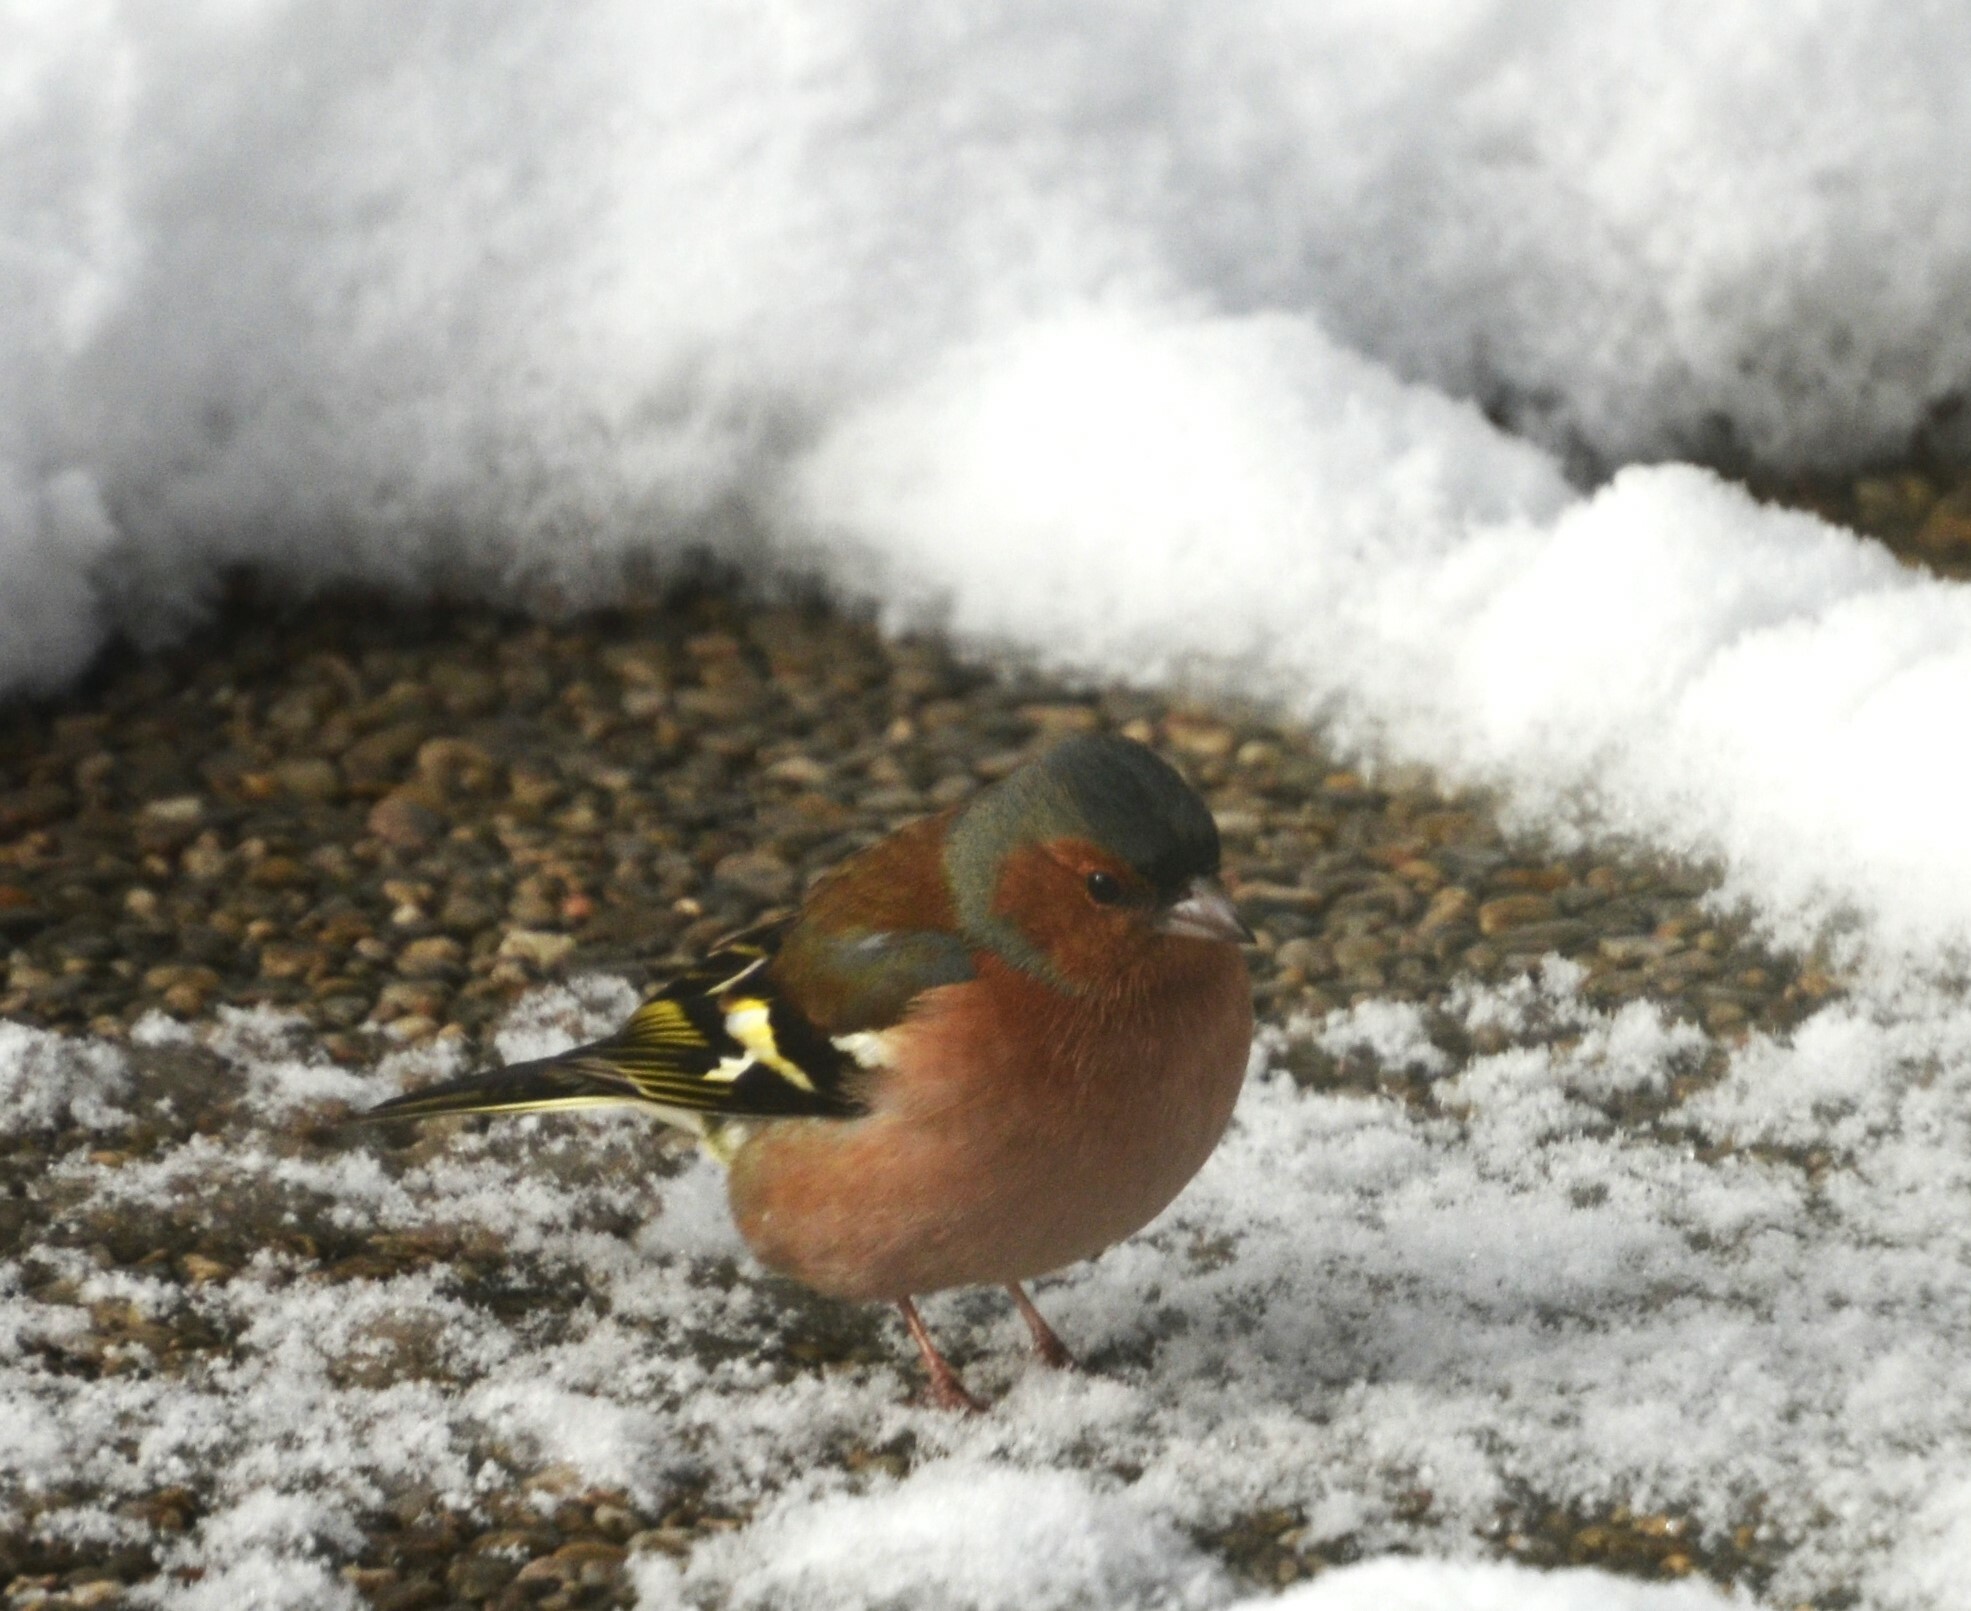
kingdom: Animalia
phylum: Chordata
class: Aves
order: Passeriformes
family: Fringillidae
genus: Fringilla
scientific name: Fringilla coelebs
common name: Common chaffinch
